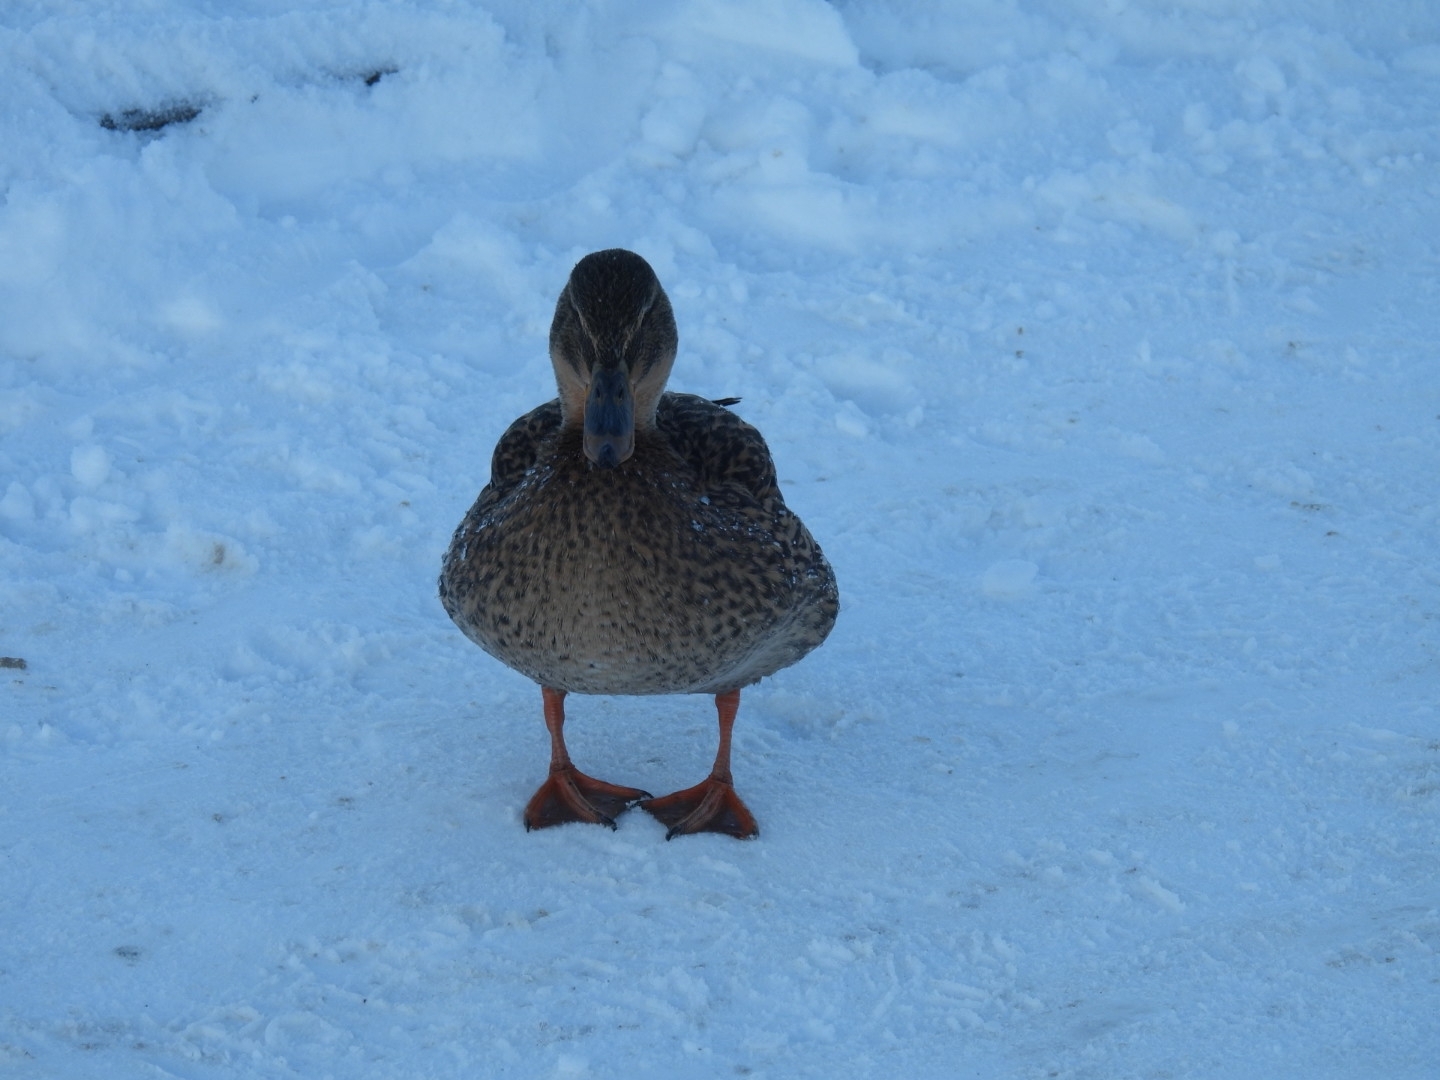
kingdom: Animalia
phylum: Chordata
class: Aves
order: Anseriformes
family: Anatidae
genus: Anas
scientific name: Anas platyrhynchos
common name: Mallard
